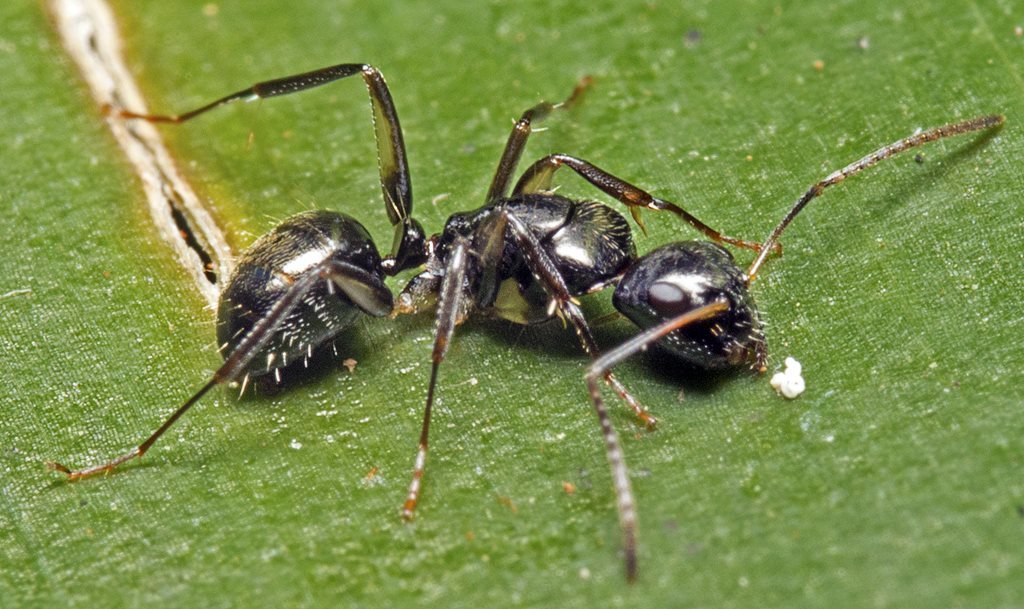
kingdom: Animalia
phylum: Arthropoda
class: Insecta
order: Hymenoptera
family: Formicidae
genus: Camponotus
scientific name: Camponotus froggatti
